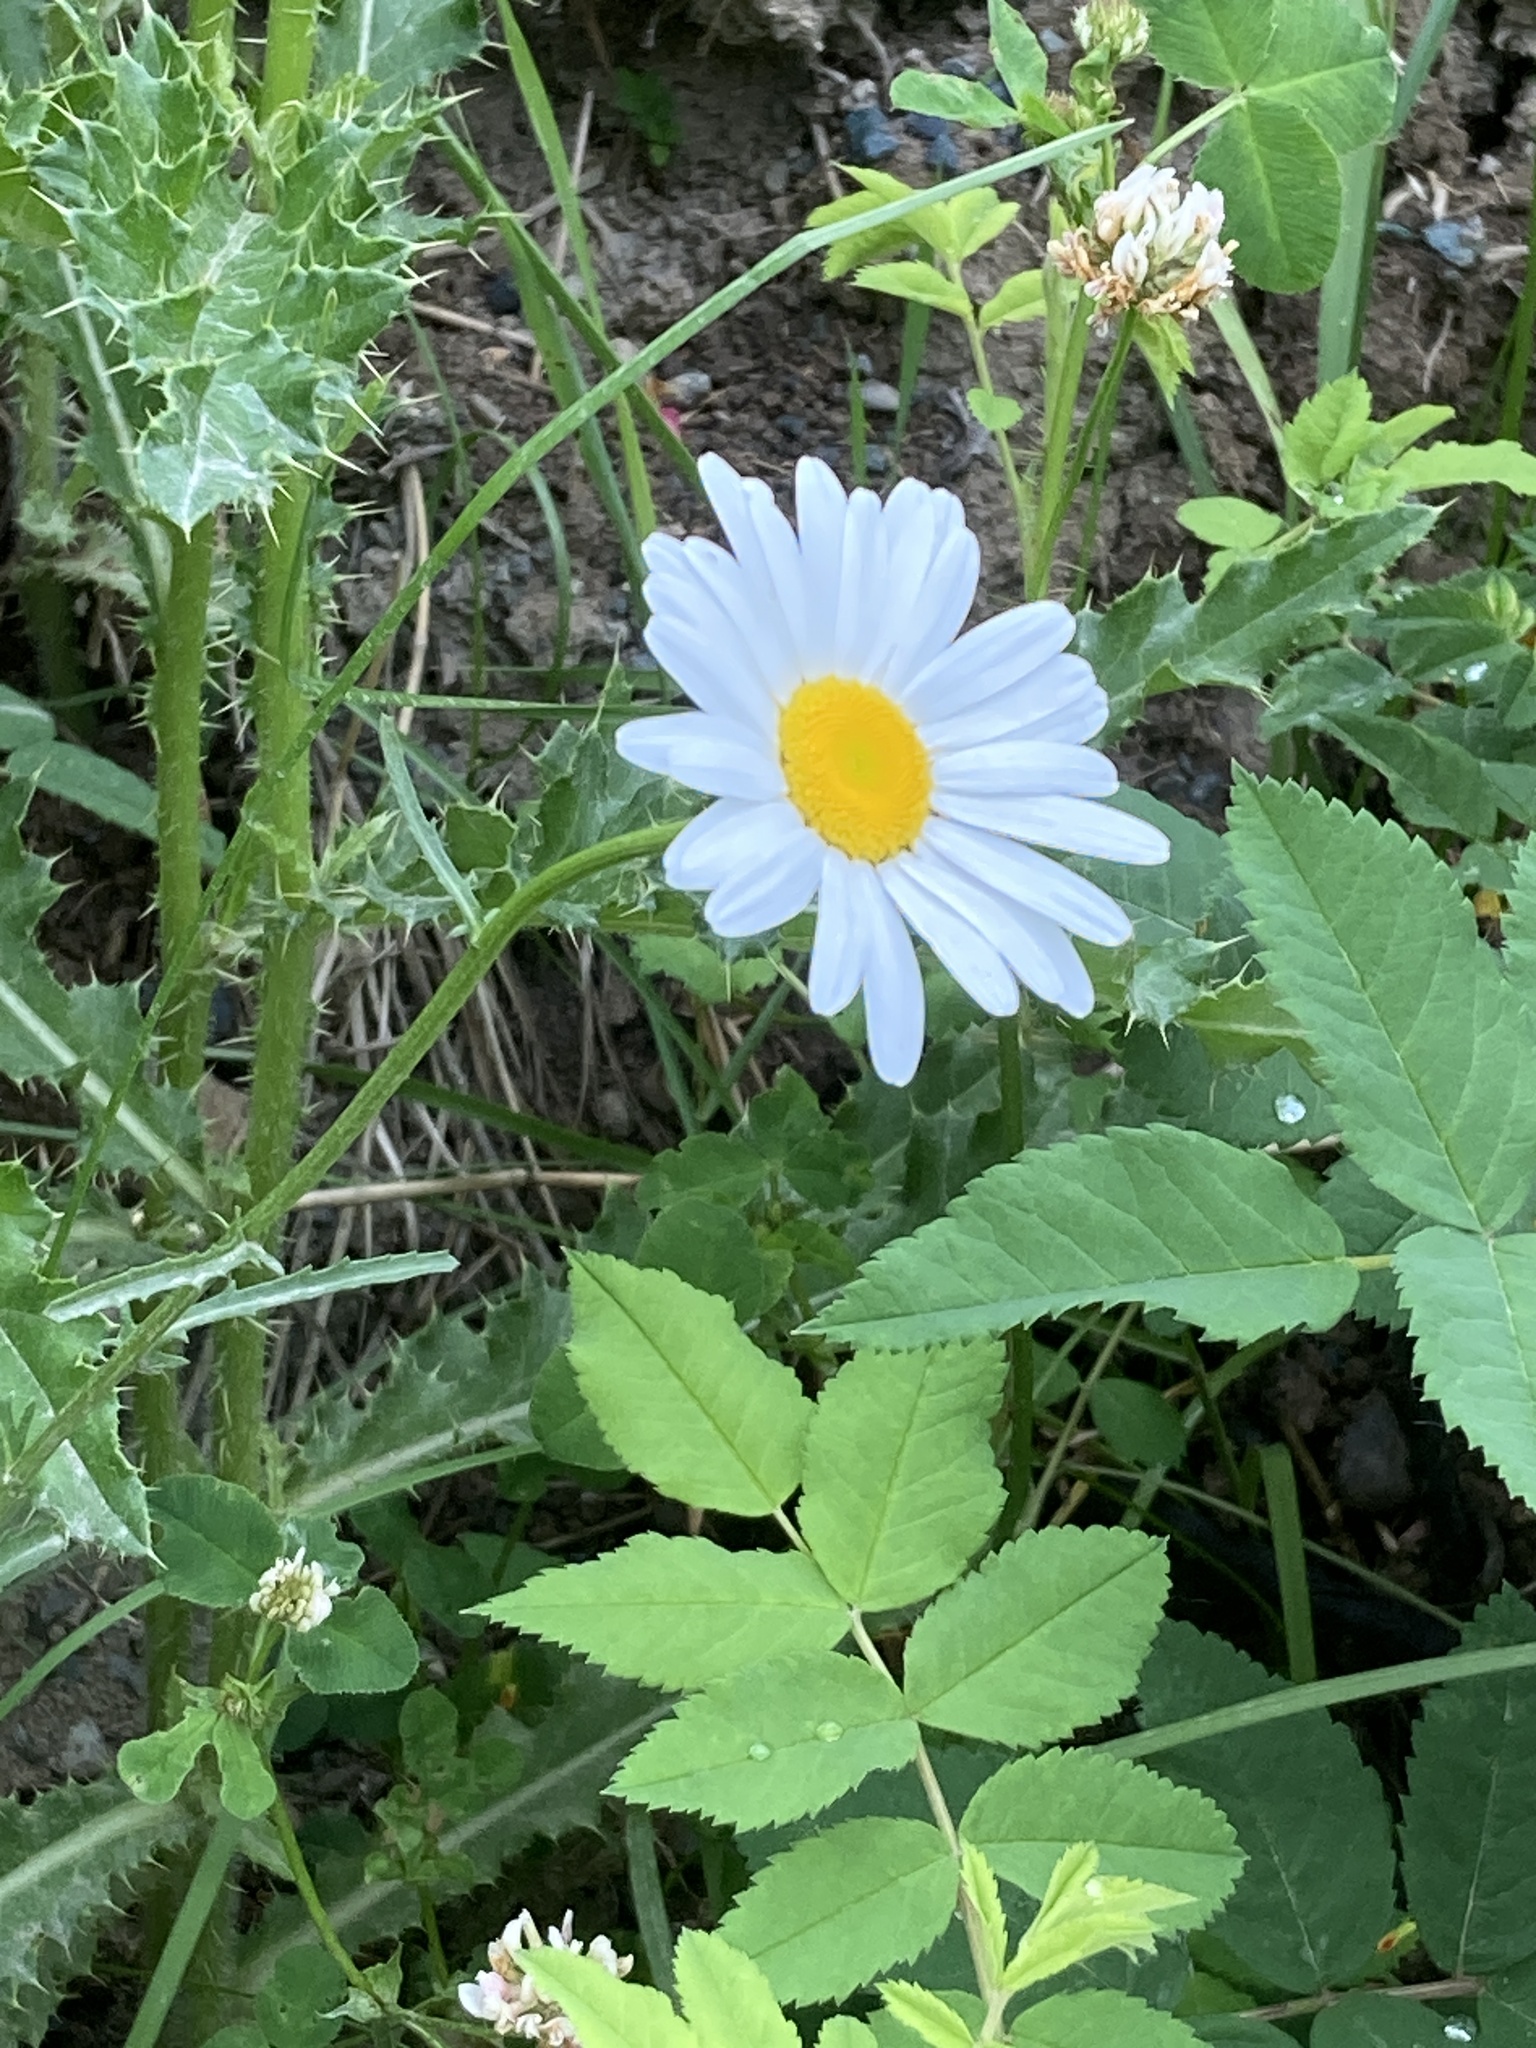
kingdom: Plantae
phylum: Tracheophyta
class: Magnoliopsida
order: Asterales
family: Asteraceae
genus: Leucanthemum
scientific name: Leucanthemum vulgare
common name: Oxeye daisy
